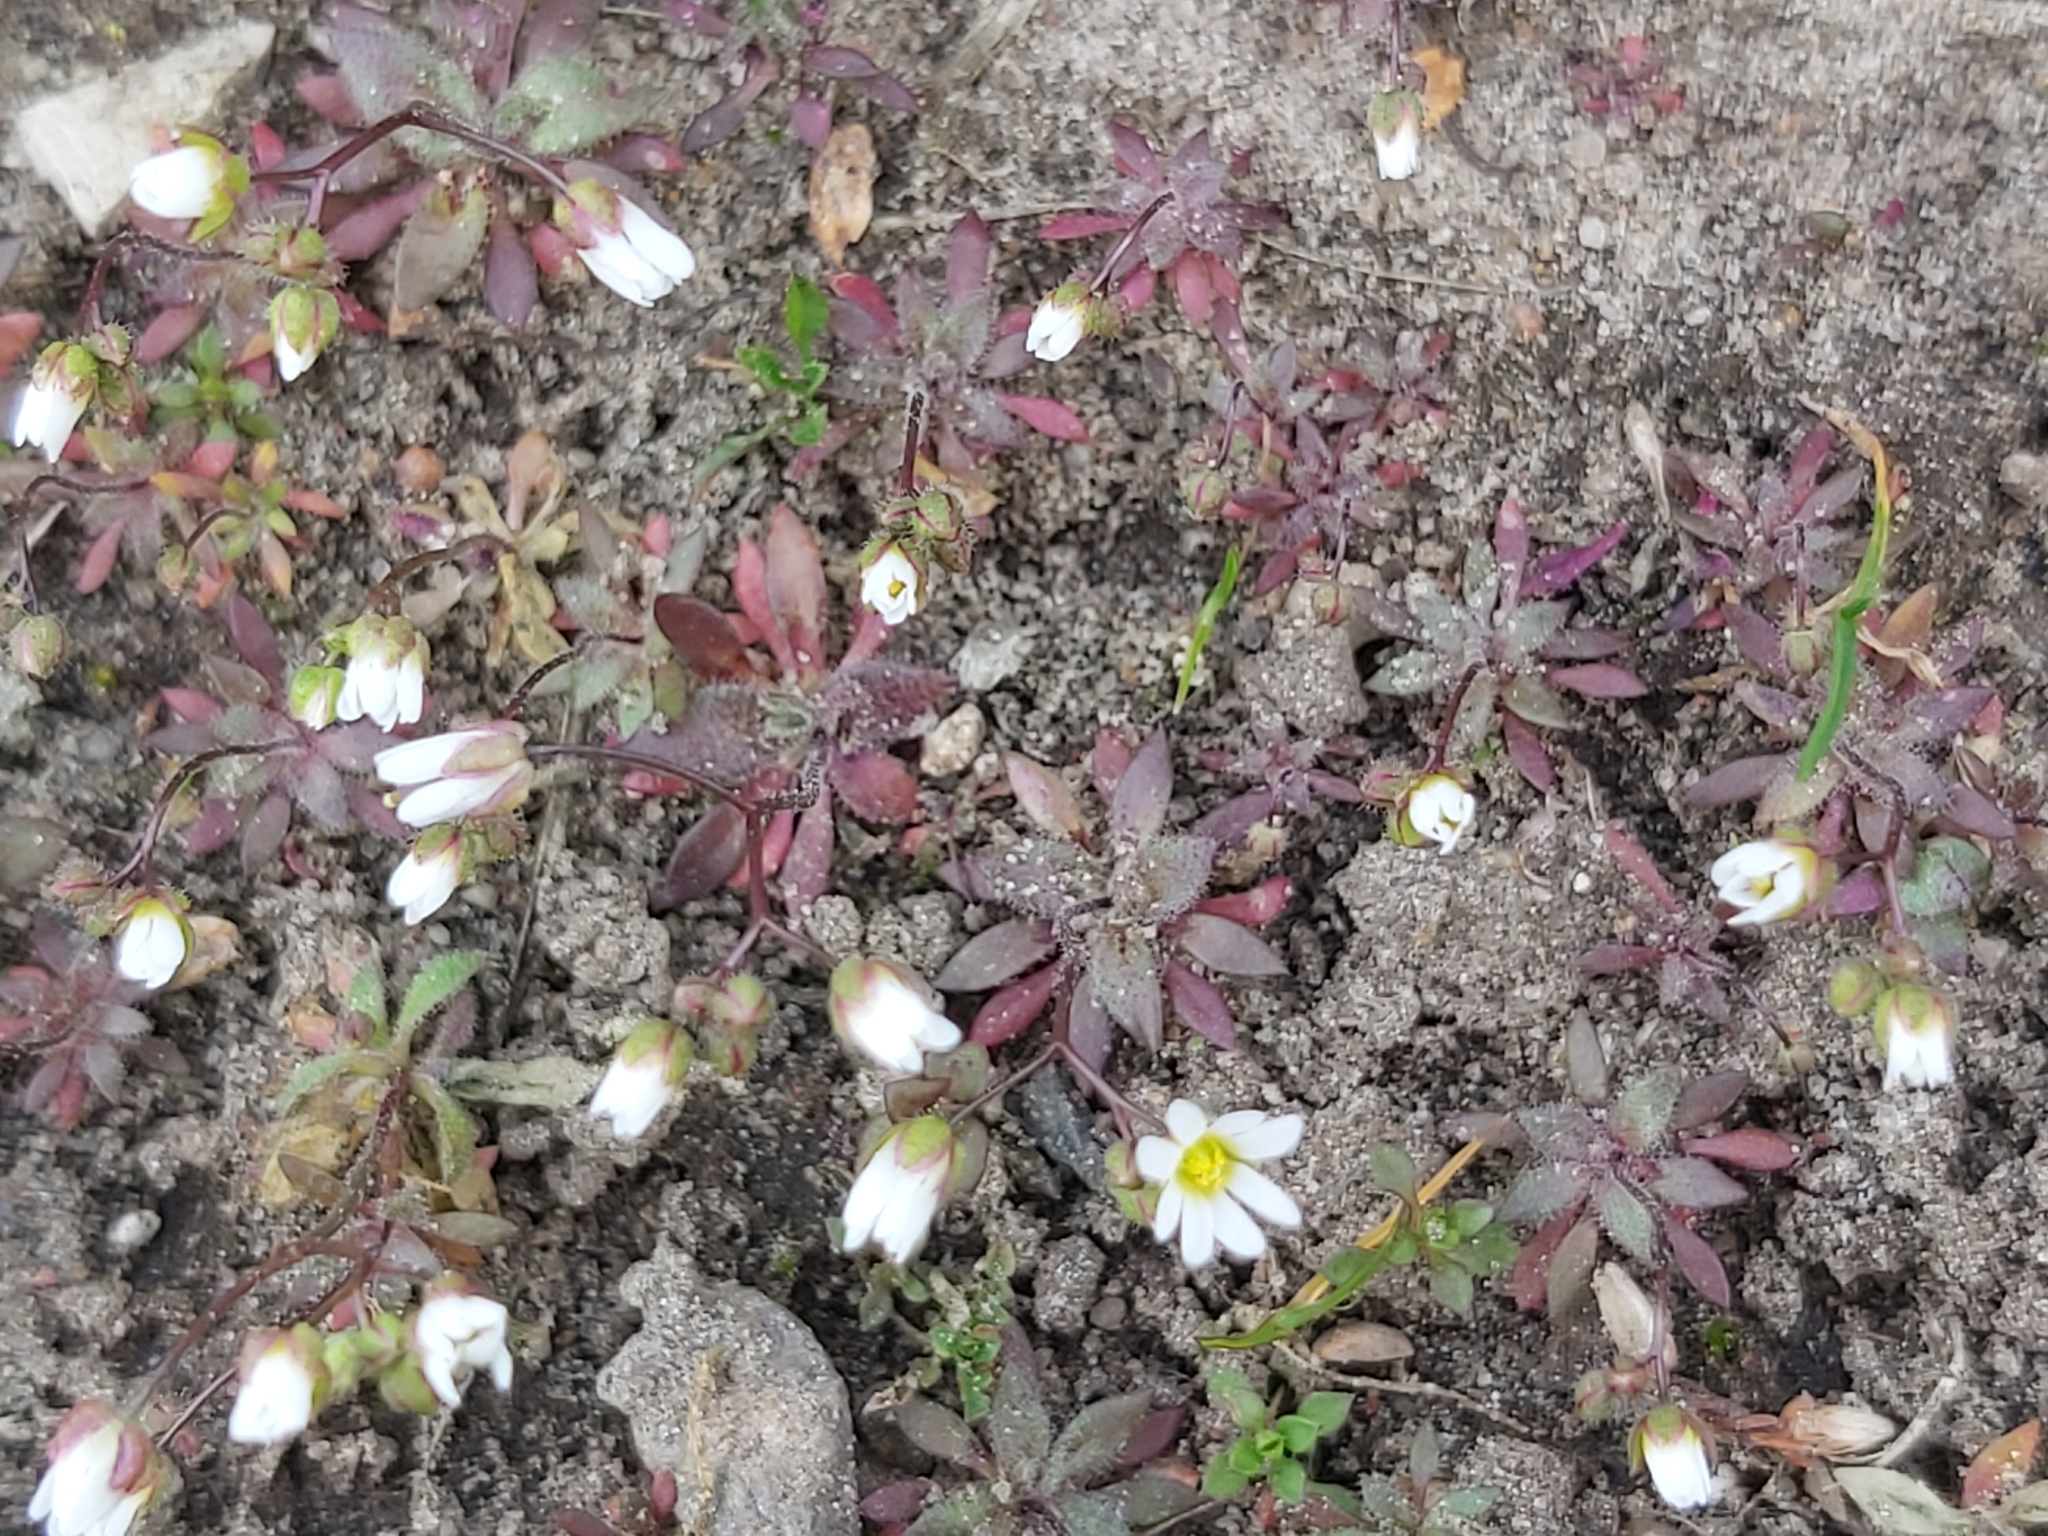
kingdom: Plantae
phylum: Tracheophyta
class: Magnoliopsida
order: Brassicales
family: Brassicaceae
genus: Draba
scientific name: Draba verna
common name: Spring draba
